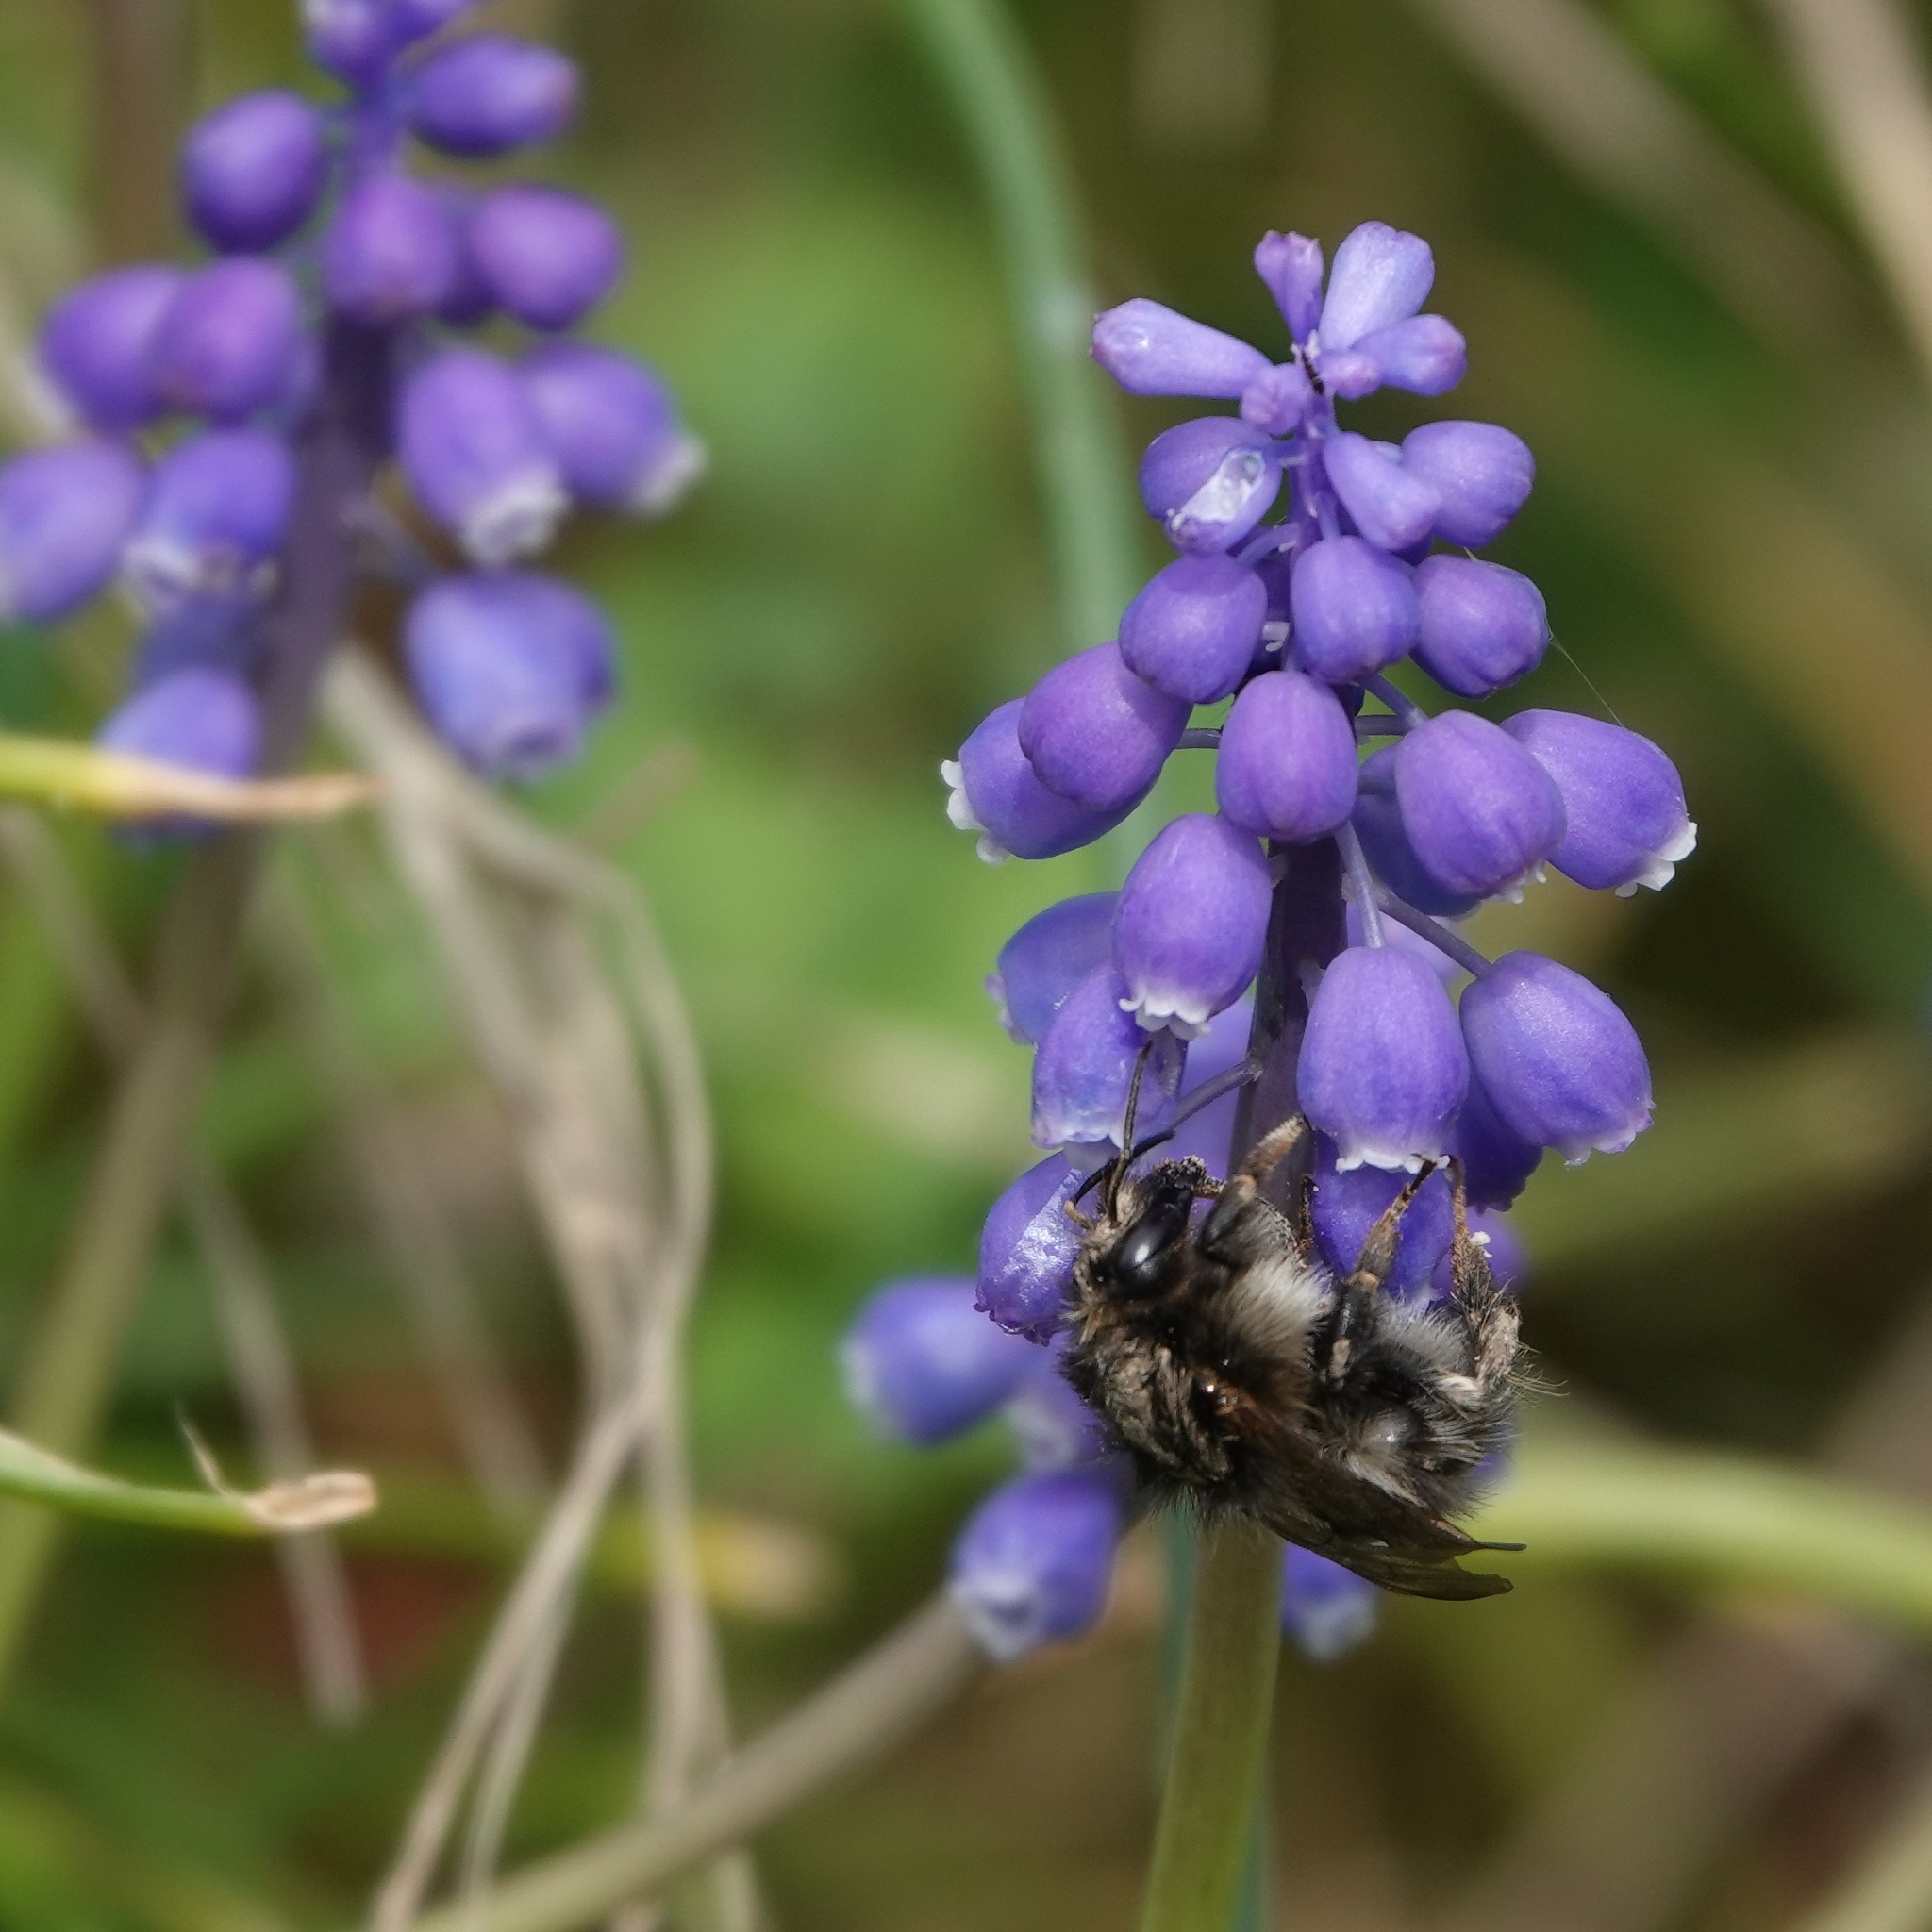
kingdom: Animalia
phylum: Arthropoda
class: Insecta
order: Hymenoptera
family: Apidae
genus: Bombus
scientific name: Bombus pascuorum
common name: Common carder bee
